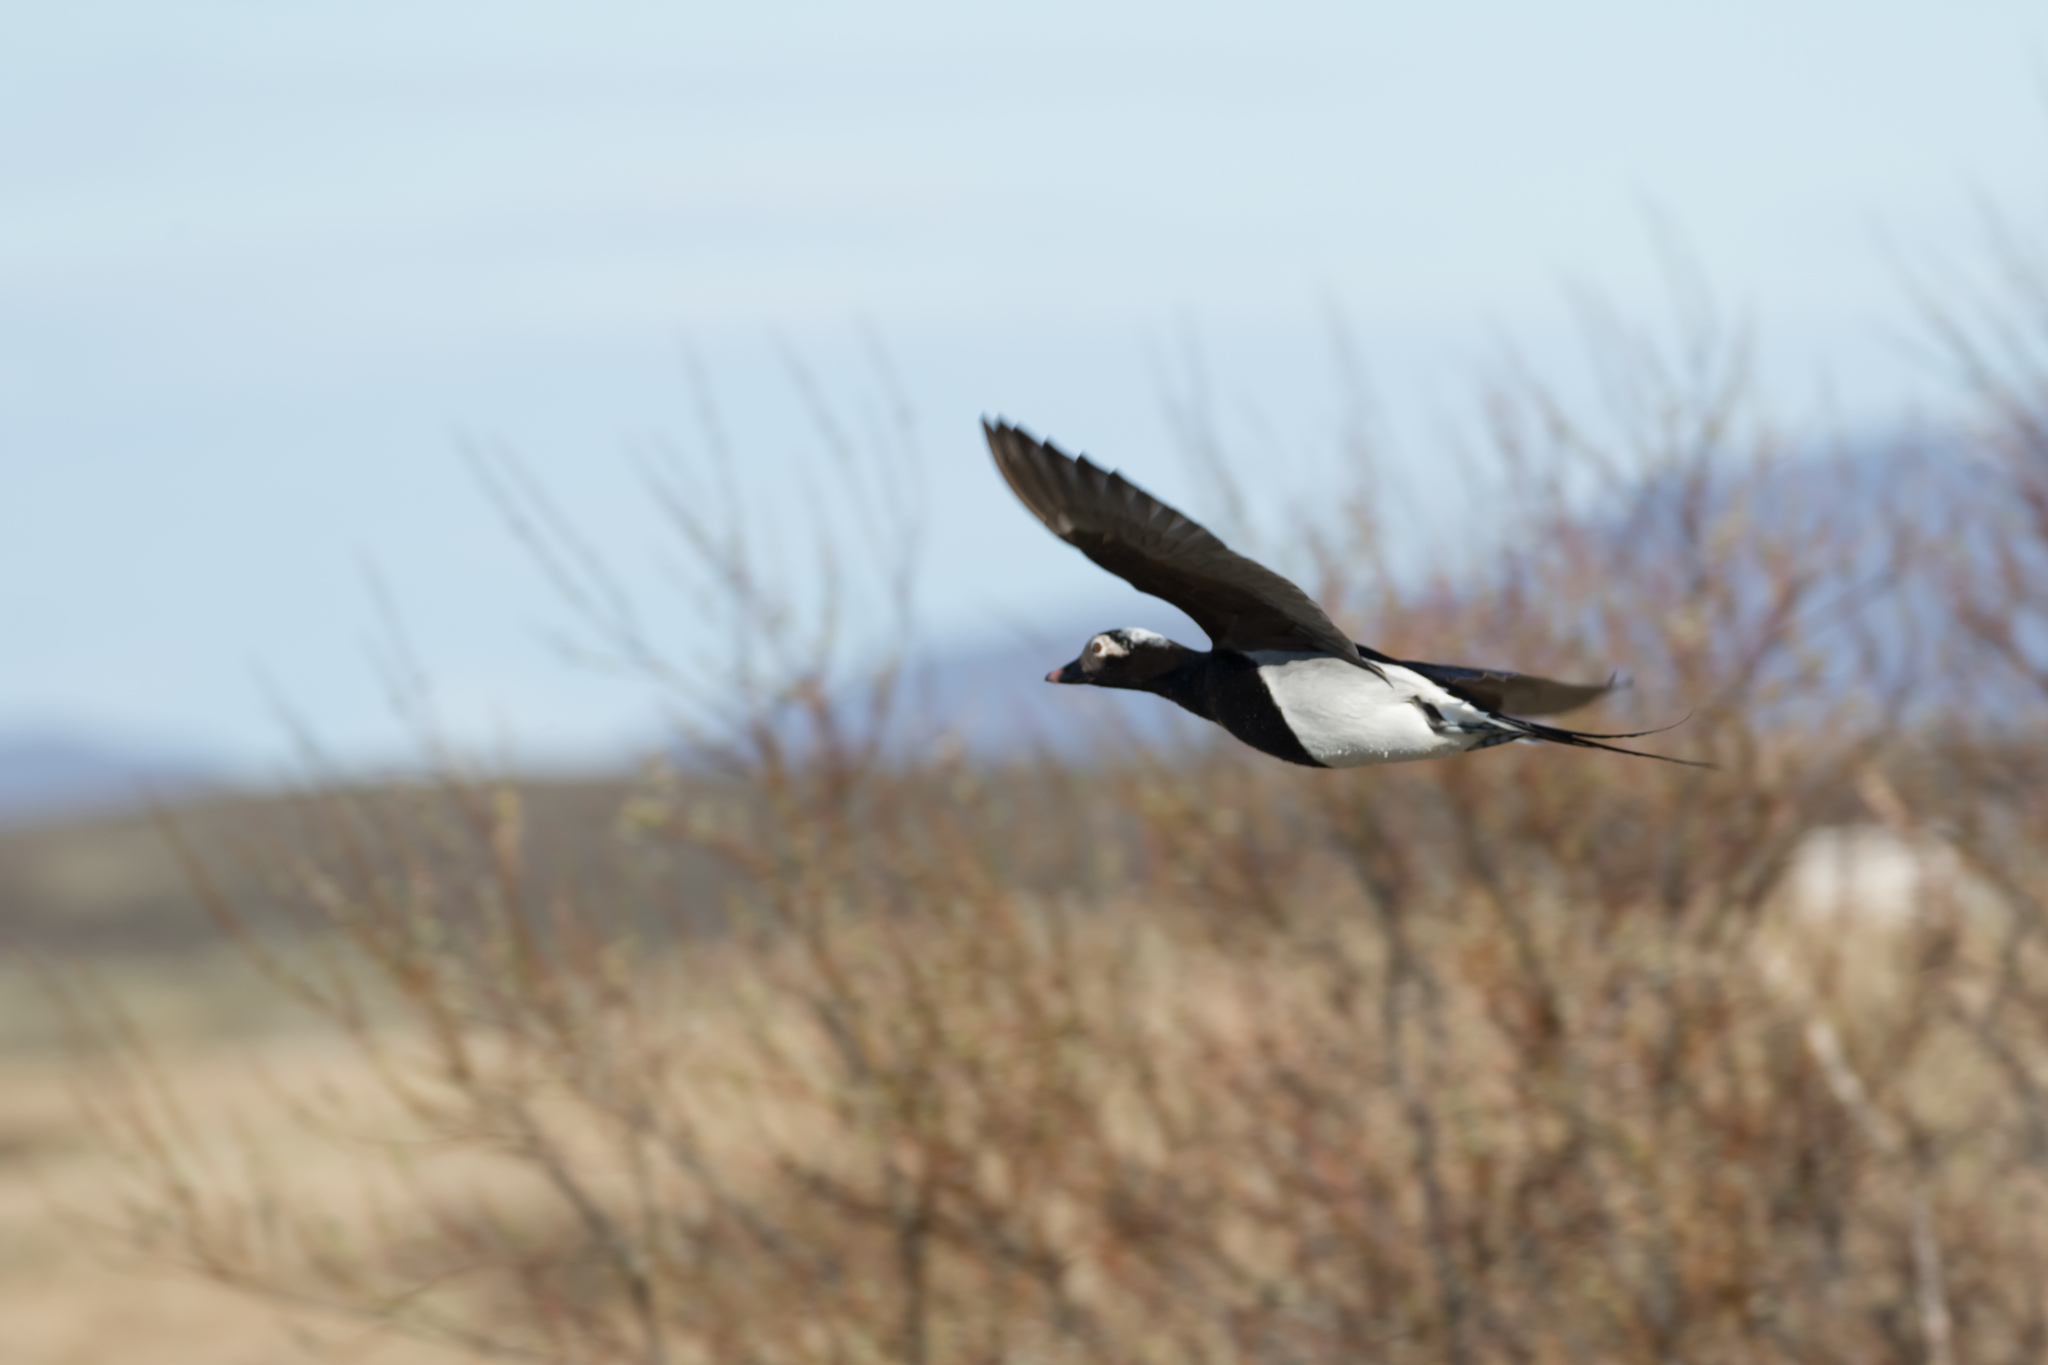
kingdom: Animalia
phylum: Chordata
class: Aves
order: Anseriformes
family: Anatidae
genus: Clangula
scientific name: Clangula hyemalis
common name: Long-tailed duck
